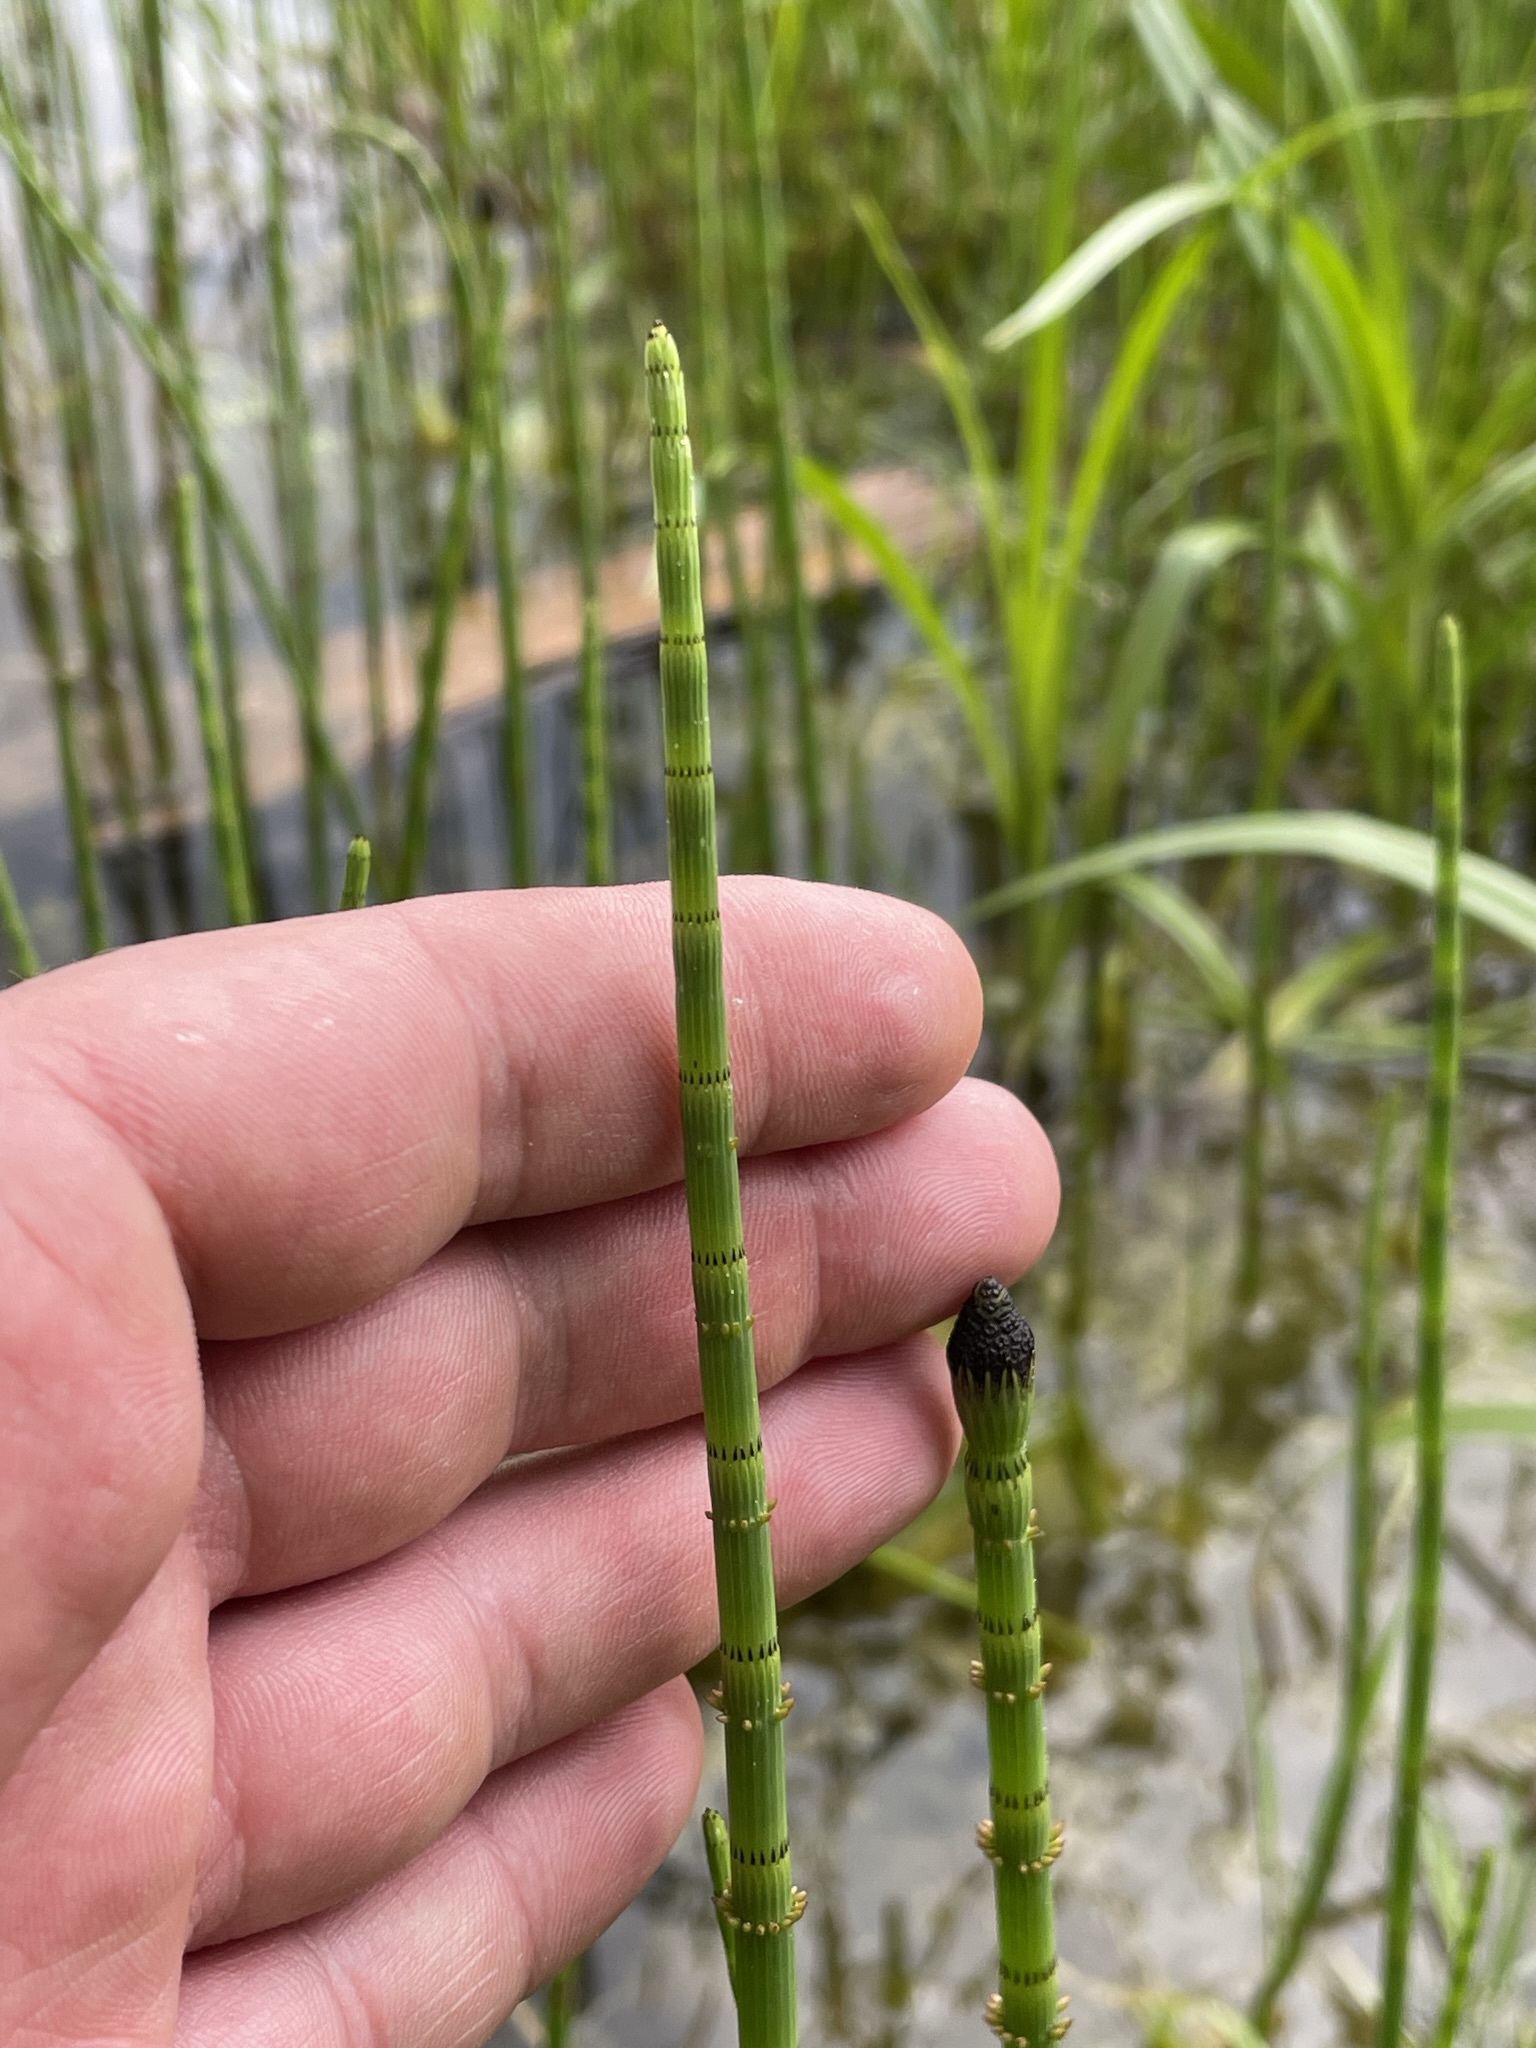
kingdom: Plantae
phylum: Tracheophyta
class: Polypodiopsida
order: Equisetales
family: Equisetaceae
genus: Equisetum
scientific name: Equisetum fluviatile
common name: Water horsetail
